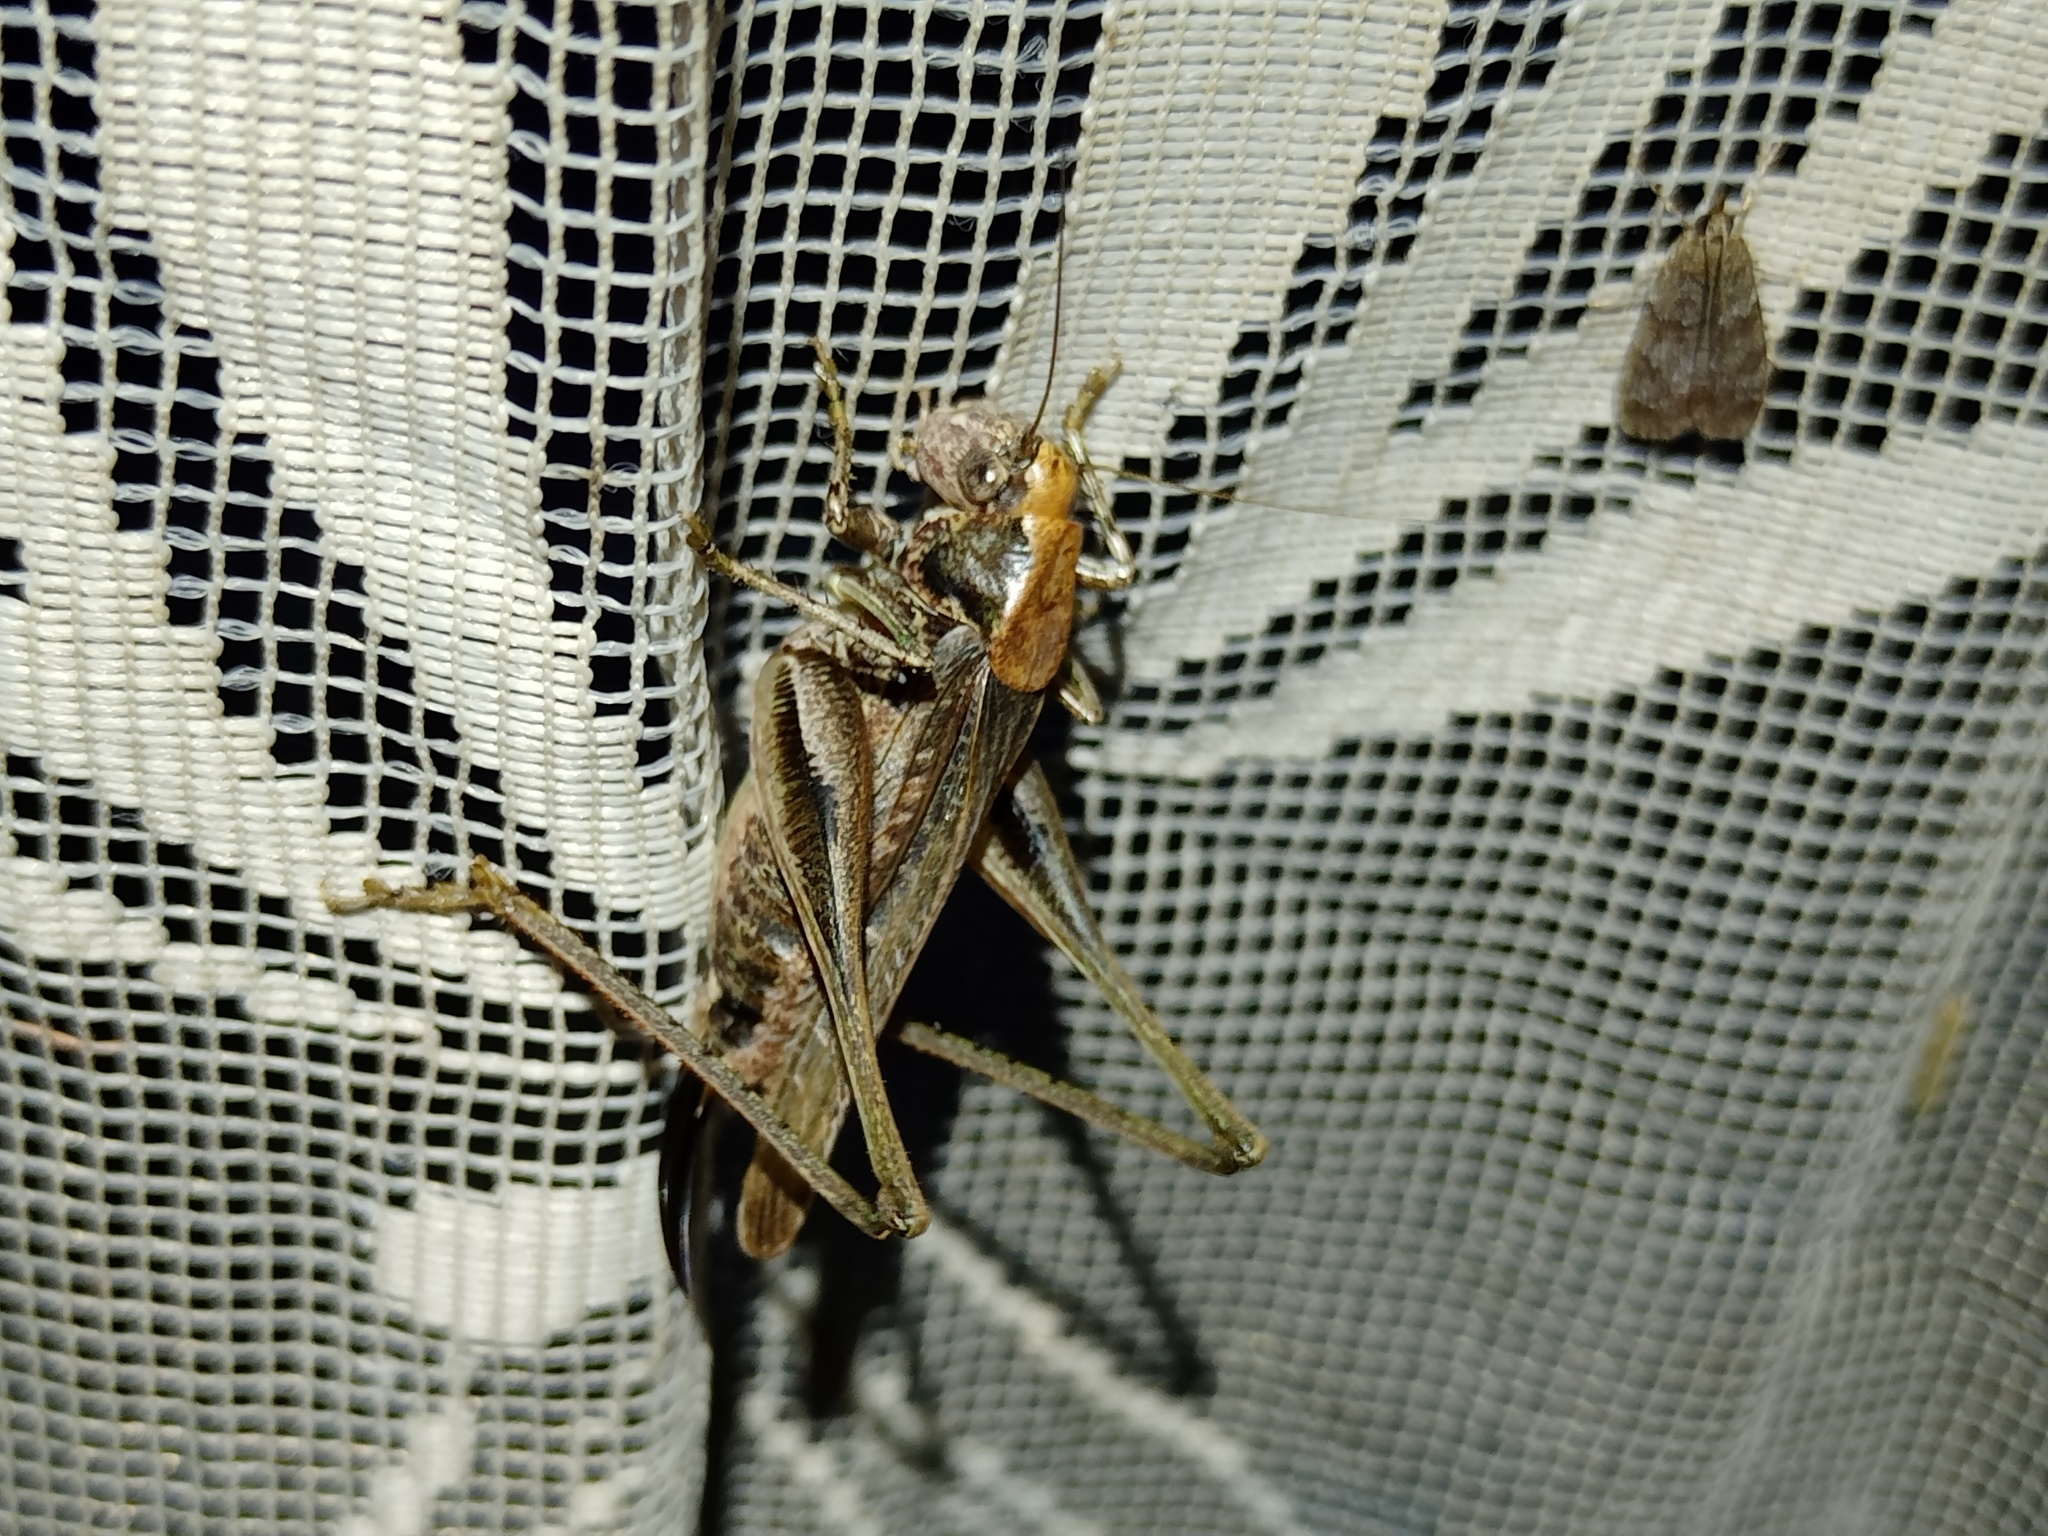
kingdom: Animalia
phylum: Arthropoda
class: Insecta
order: Orthoptera
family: Tettigoniidae
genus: Platycleis
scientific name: Platycleis albopunctata
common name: Grey bush-cricket
